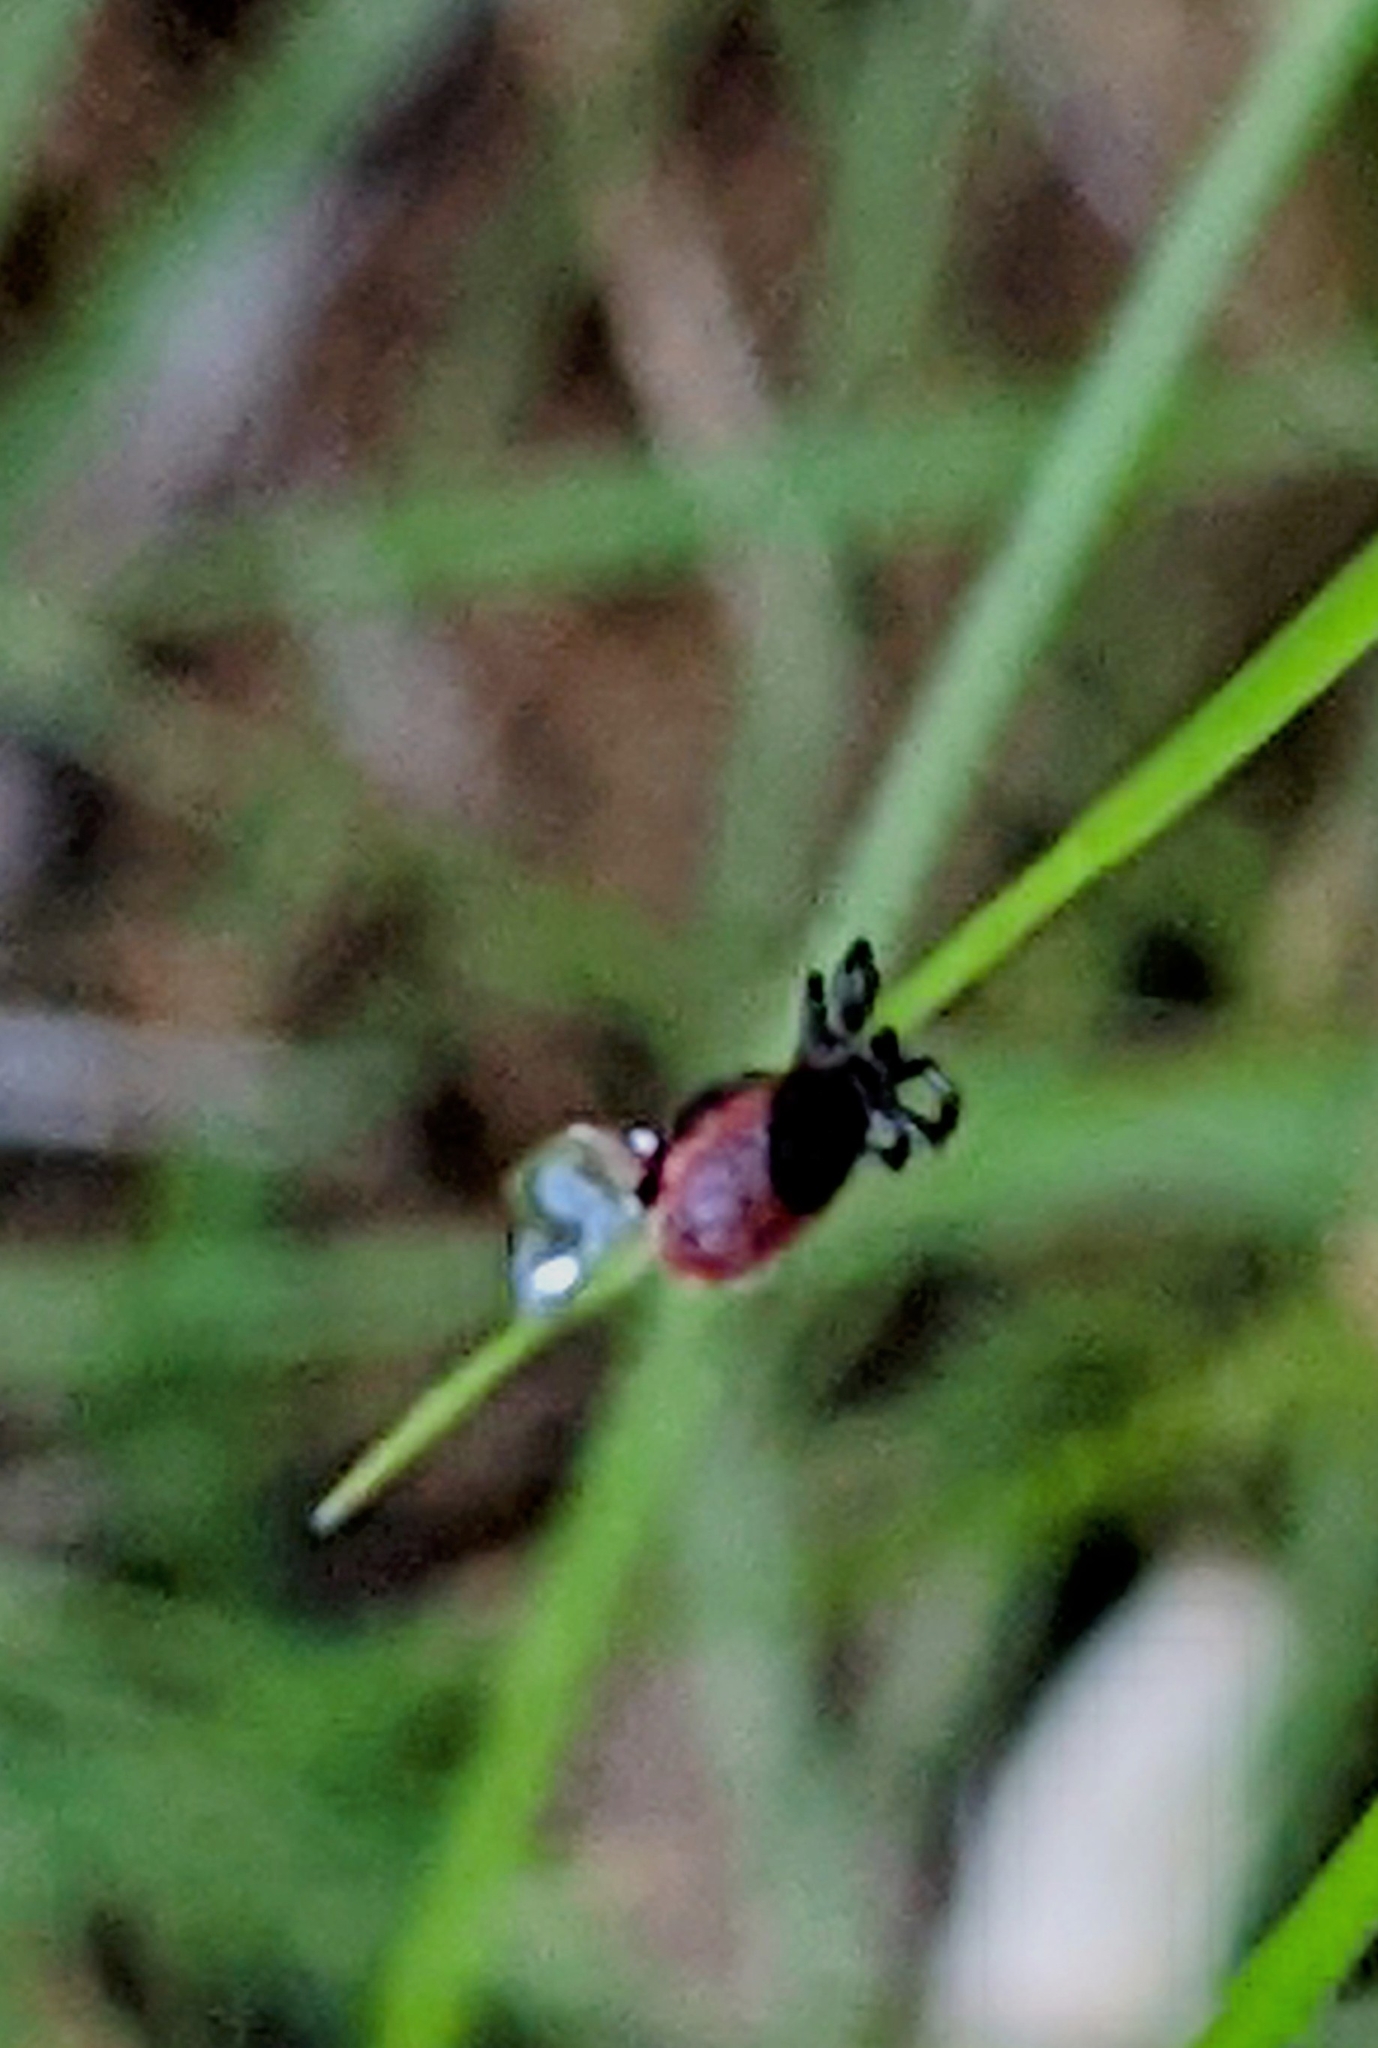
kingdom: Animalia
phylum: Arthropoda
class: Arachnida
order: Ixodida
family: Ixodidae
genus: Ixodes
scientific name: Ixodes pacificus
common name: California black-legged tick
